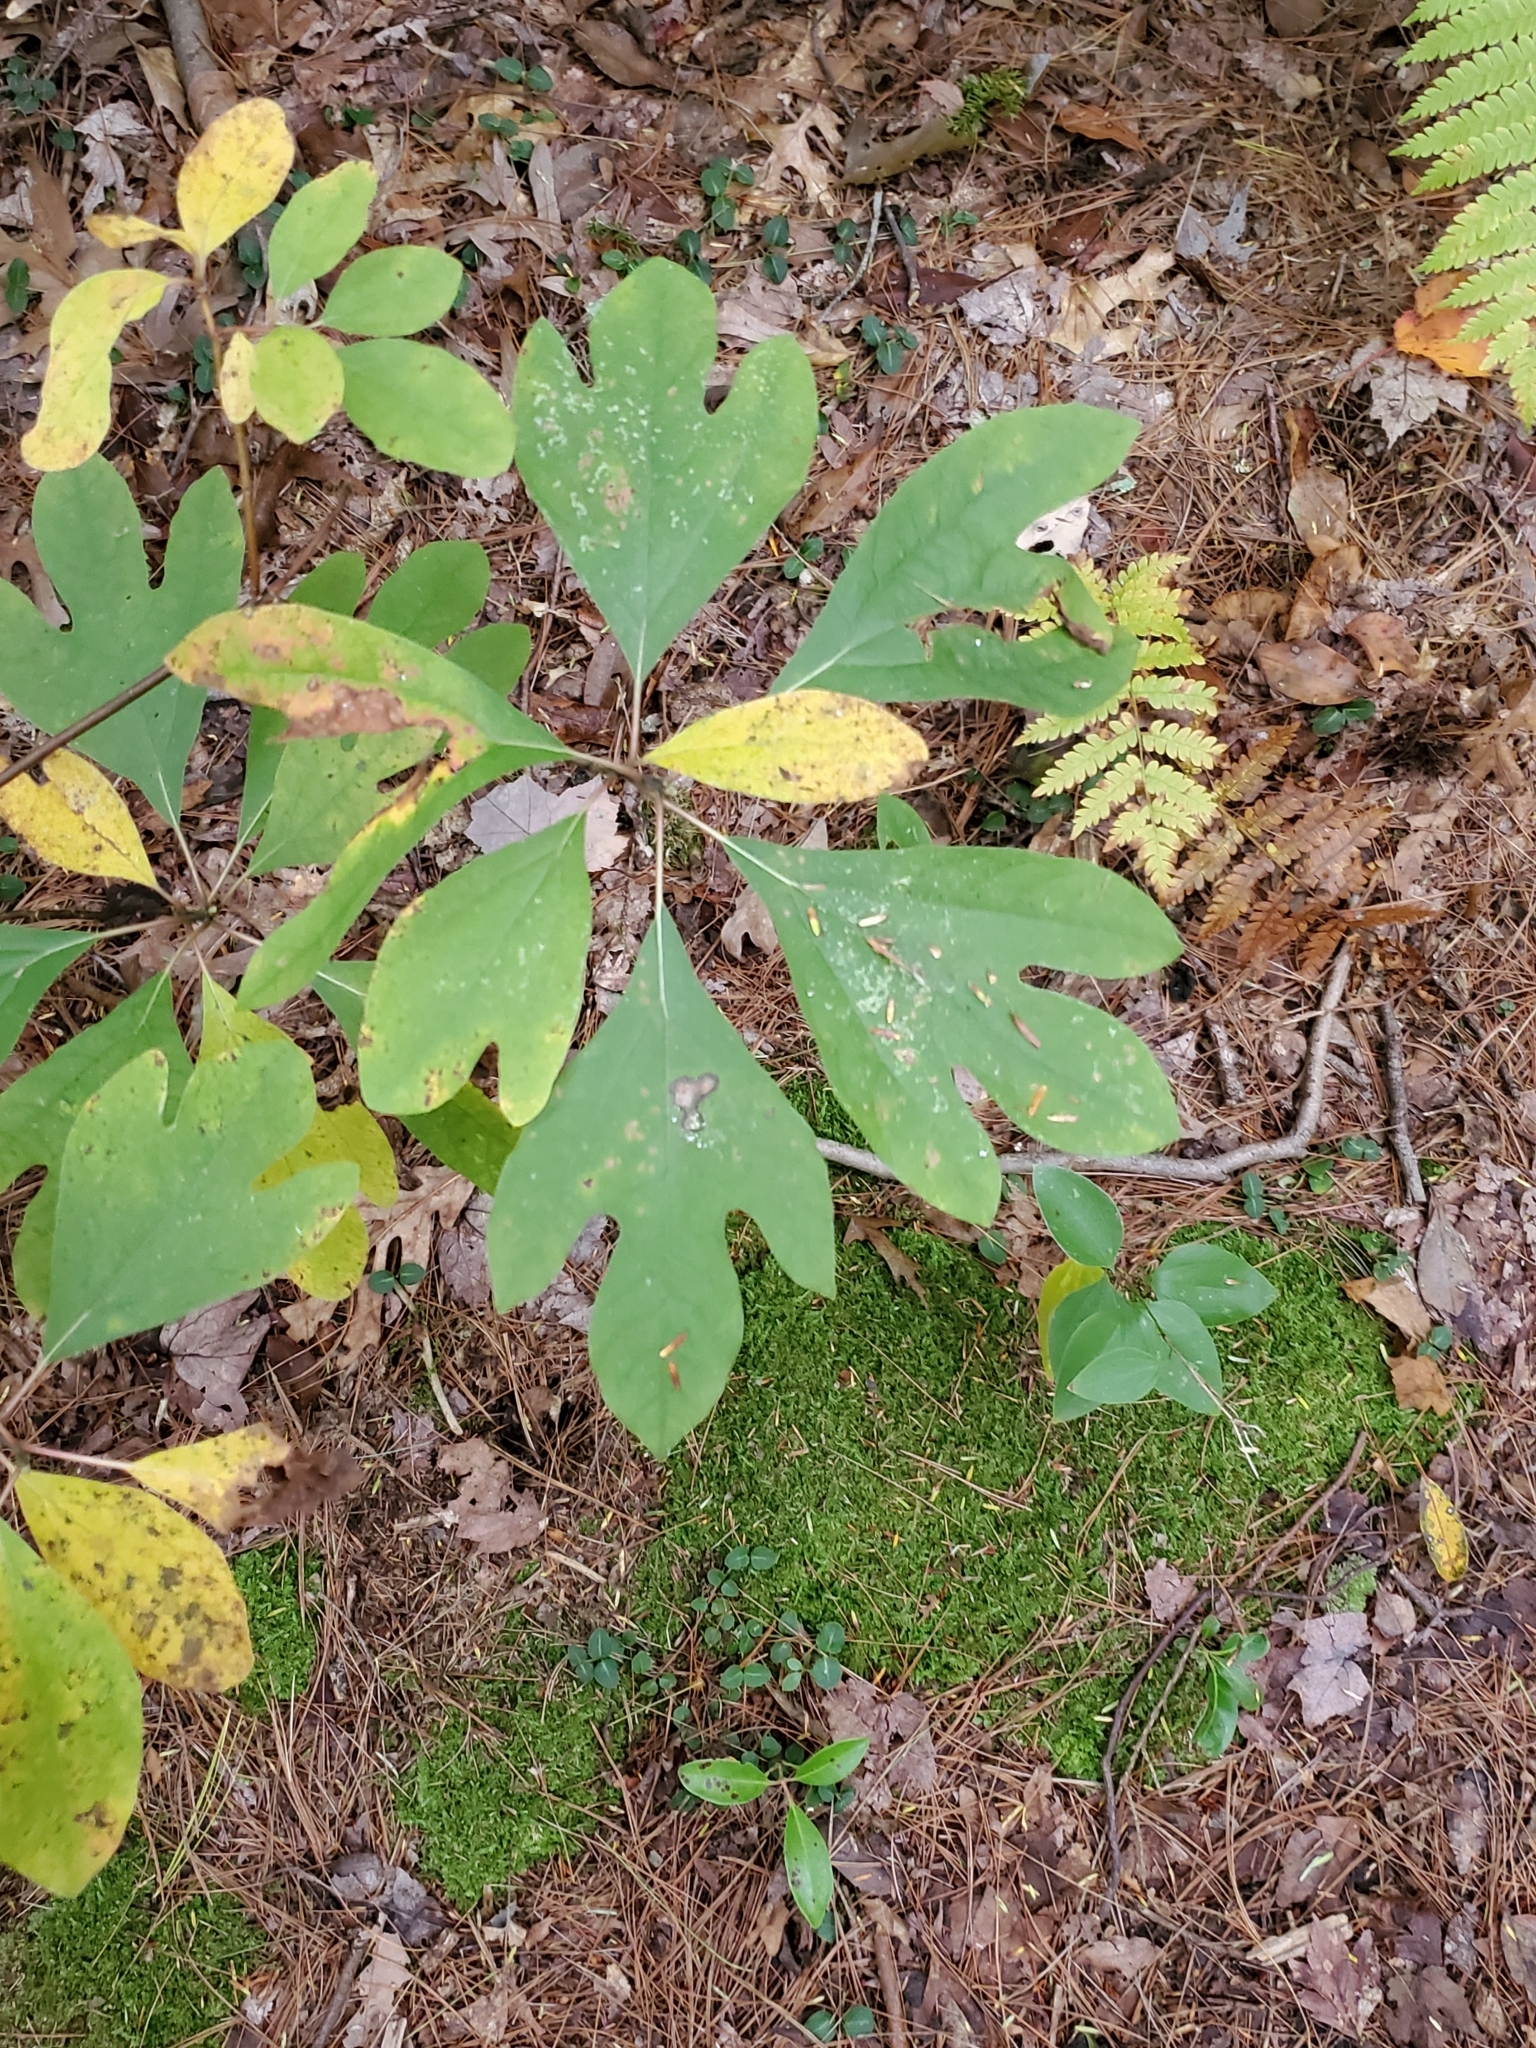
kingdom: Plantae
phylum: Tracheophyta
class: Magnoliopsida
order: Laurales
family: Lauraceae
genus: Sassafras
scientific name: Sassafras albidum
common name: Sassafras
